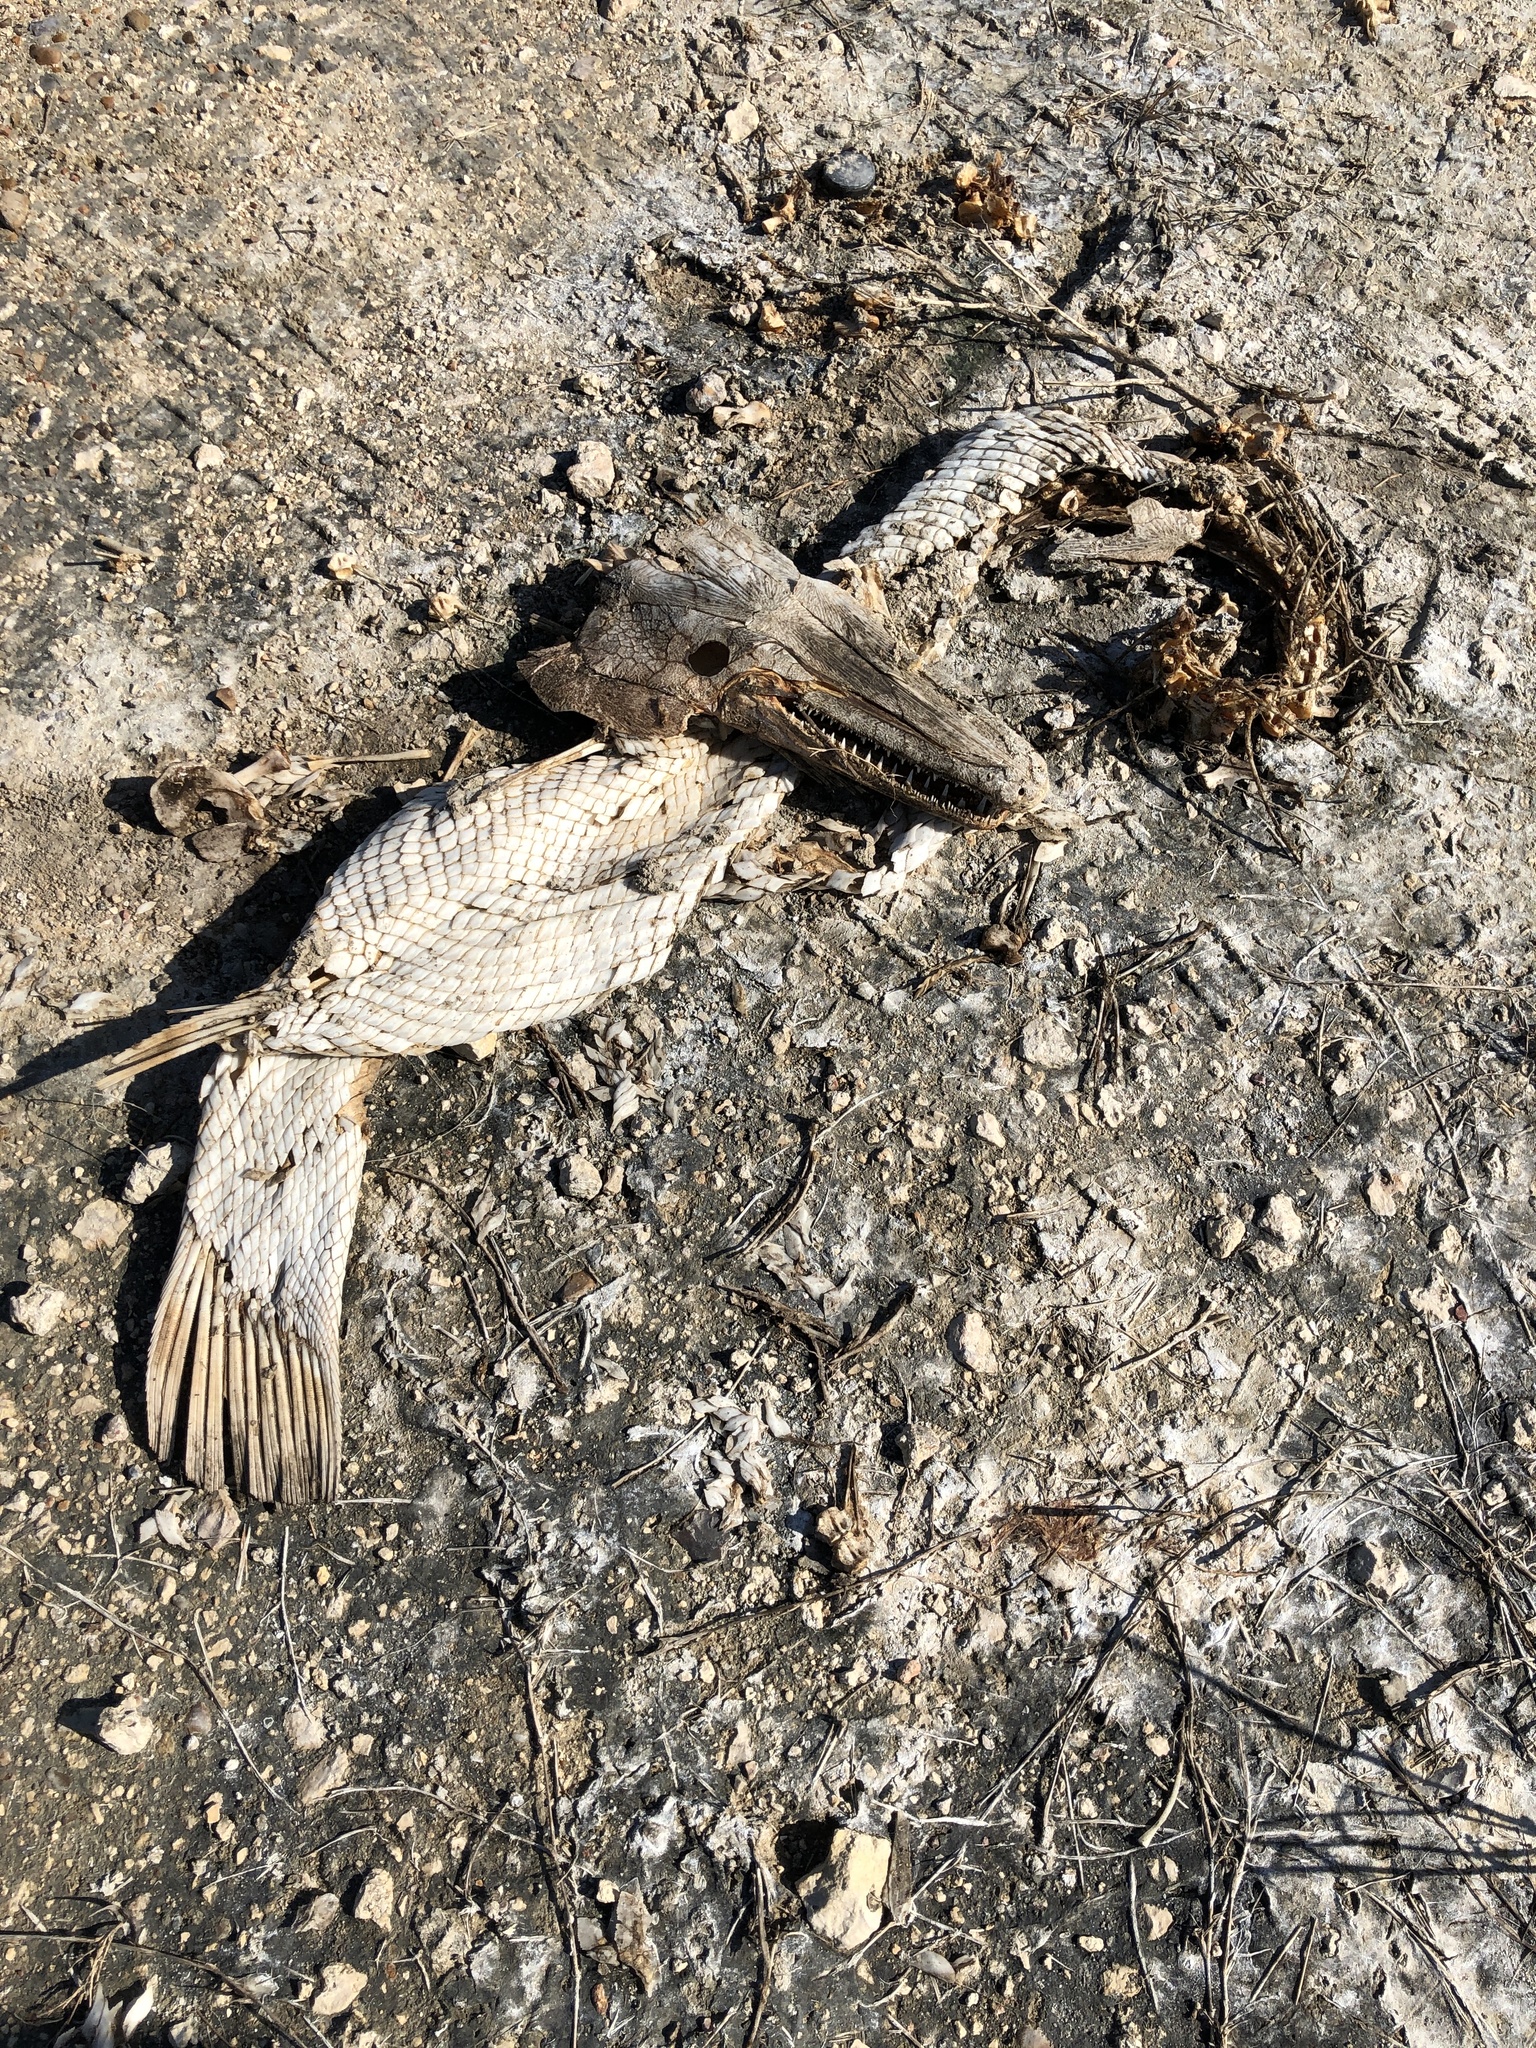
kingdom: Animalia
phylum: Chordata
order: Lepisosteiformes
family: Lepisosteidae
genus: Atractosteus
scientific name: Atractosteus spatula
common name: Alligator gar
